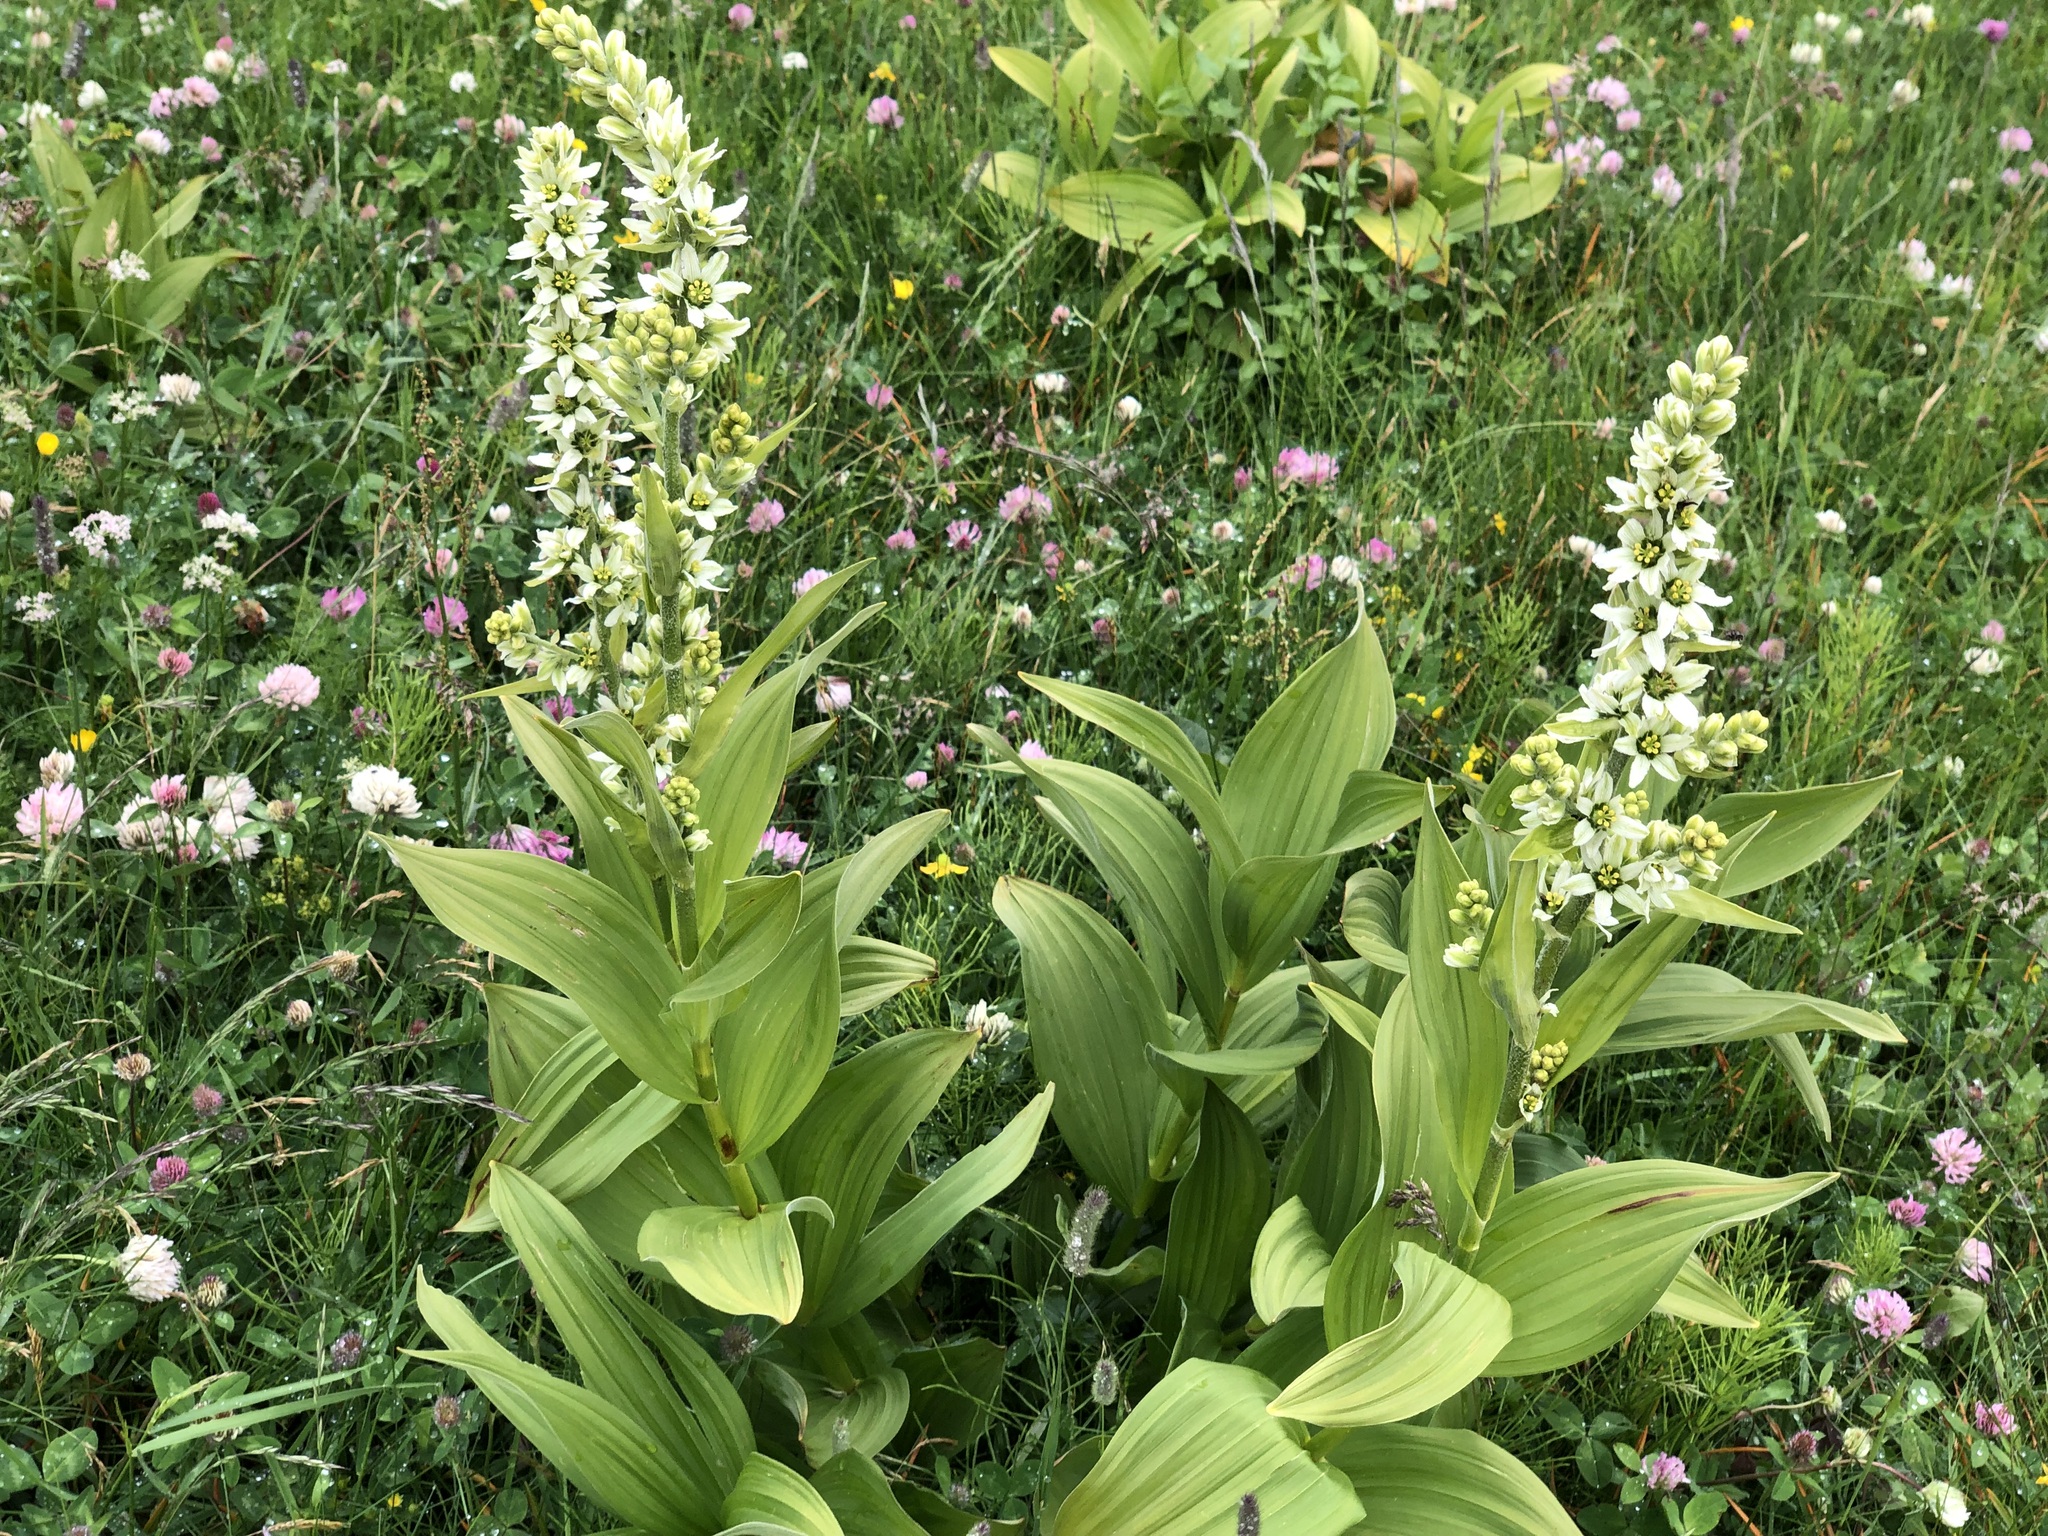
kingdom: Plantae
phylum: Tracheophyta
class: Liliopsida
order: Liliales
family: Melanthiaceae
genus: Veratrum
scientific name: Veratrum album
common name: White veratrum
